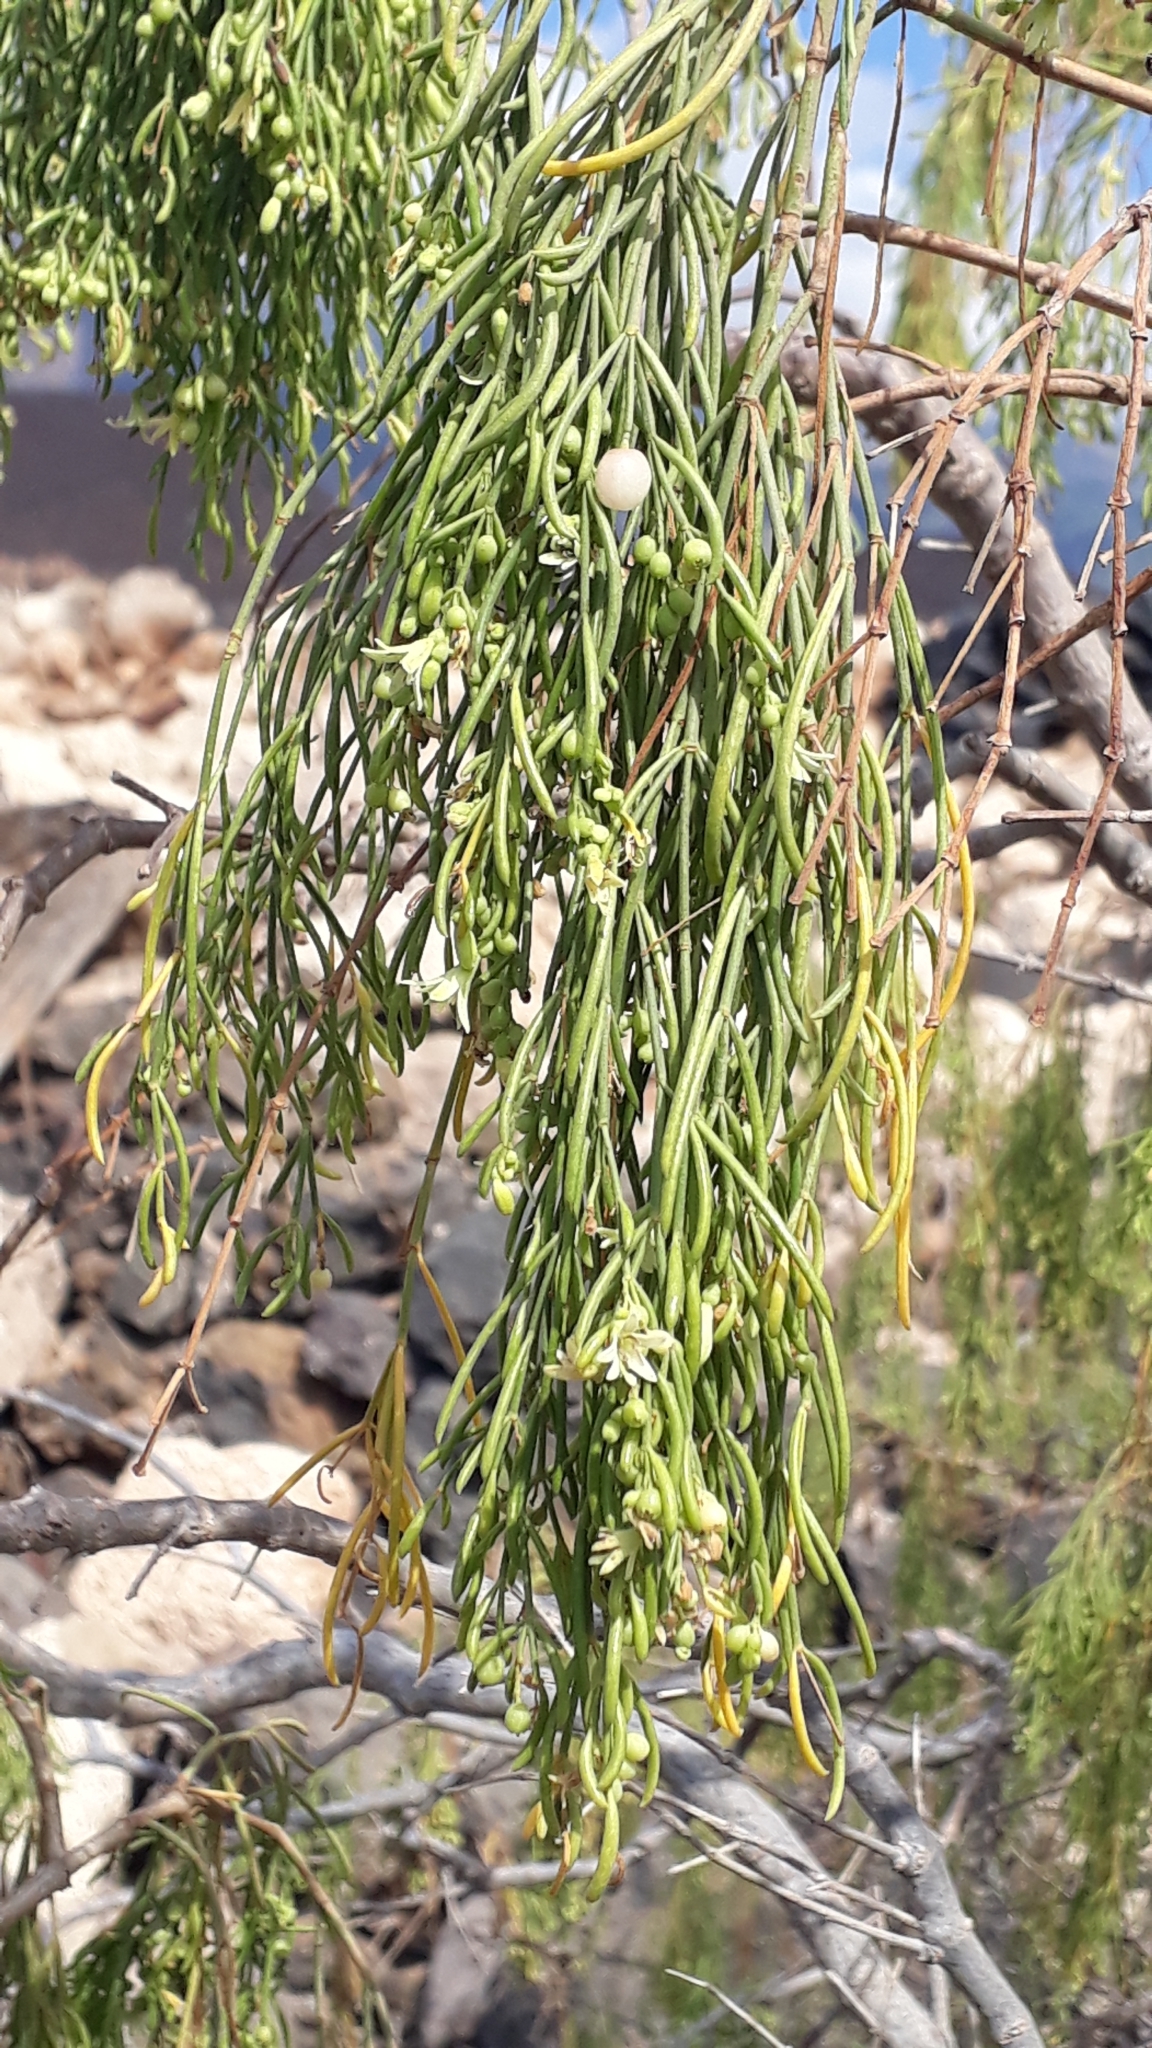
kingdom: Plantae
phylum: Tracheophyta
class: Magnoliopsida
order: Gentianales
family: Rubiaceae
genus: Plocama
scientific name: Plocama pendula
